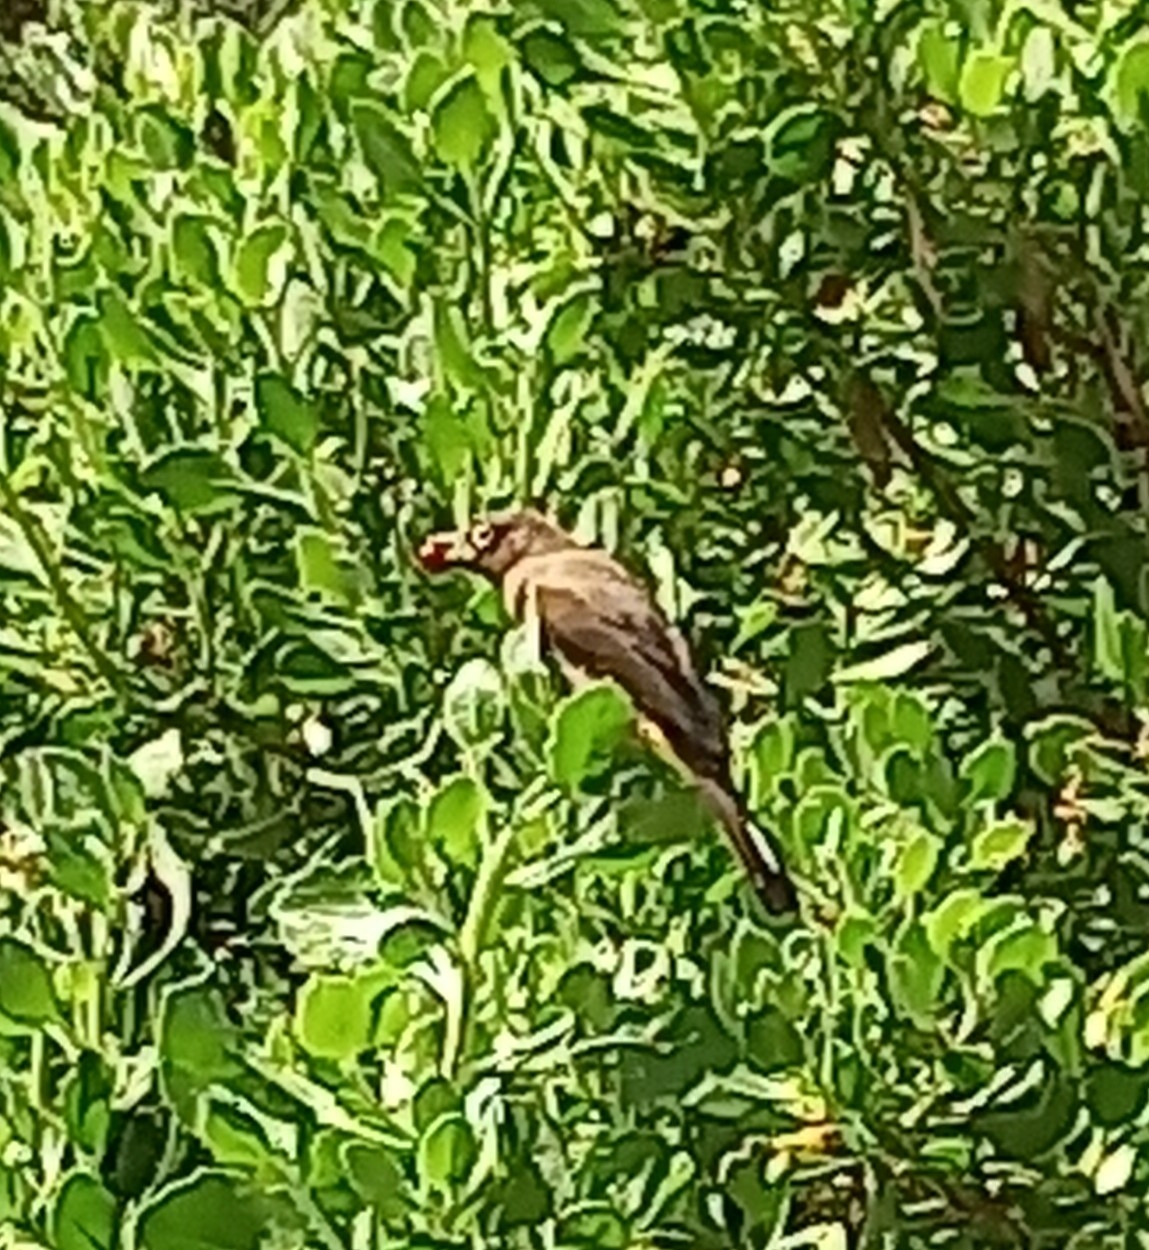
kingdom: Animalia
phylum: Chordata
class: Aves
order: Passeriformes
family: Pycnonotidae
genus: Pycnonotus
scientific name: Pycnonotus capensis
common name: Cape bulbul
